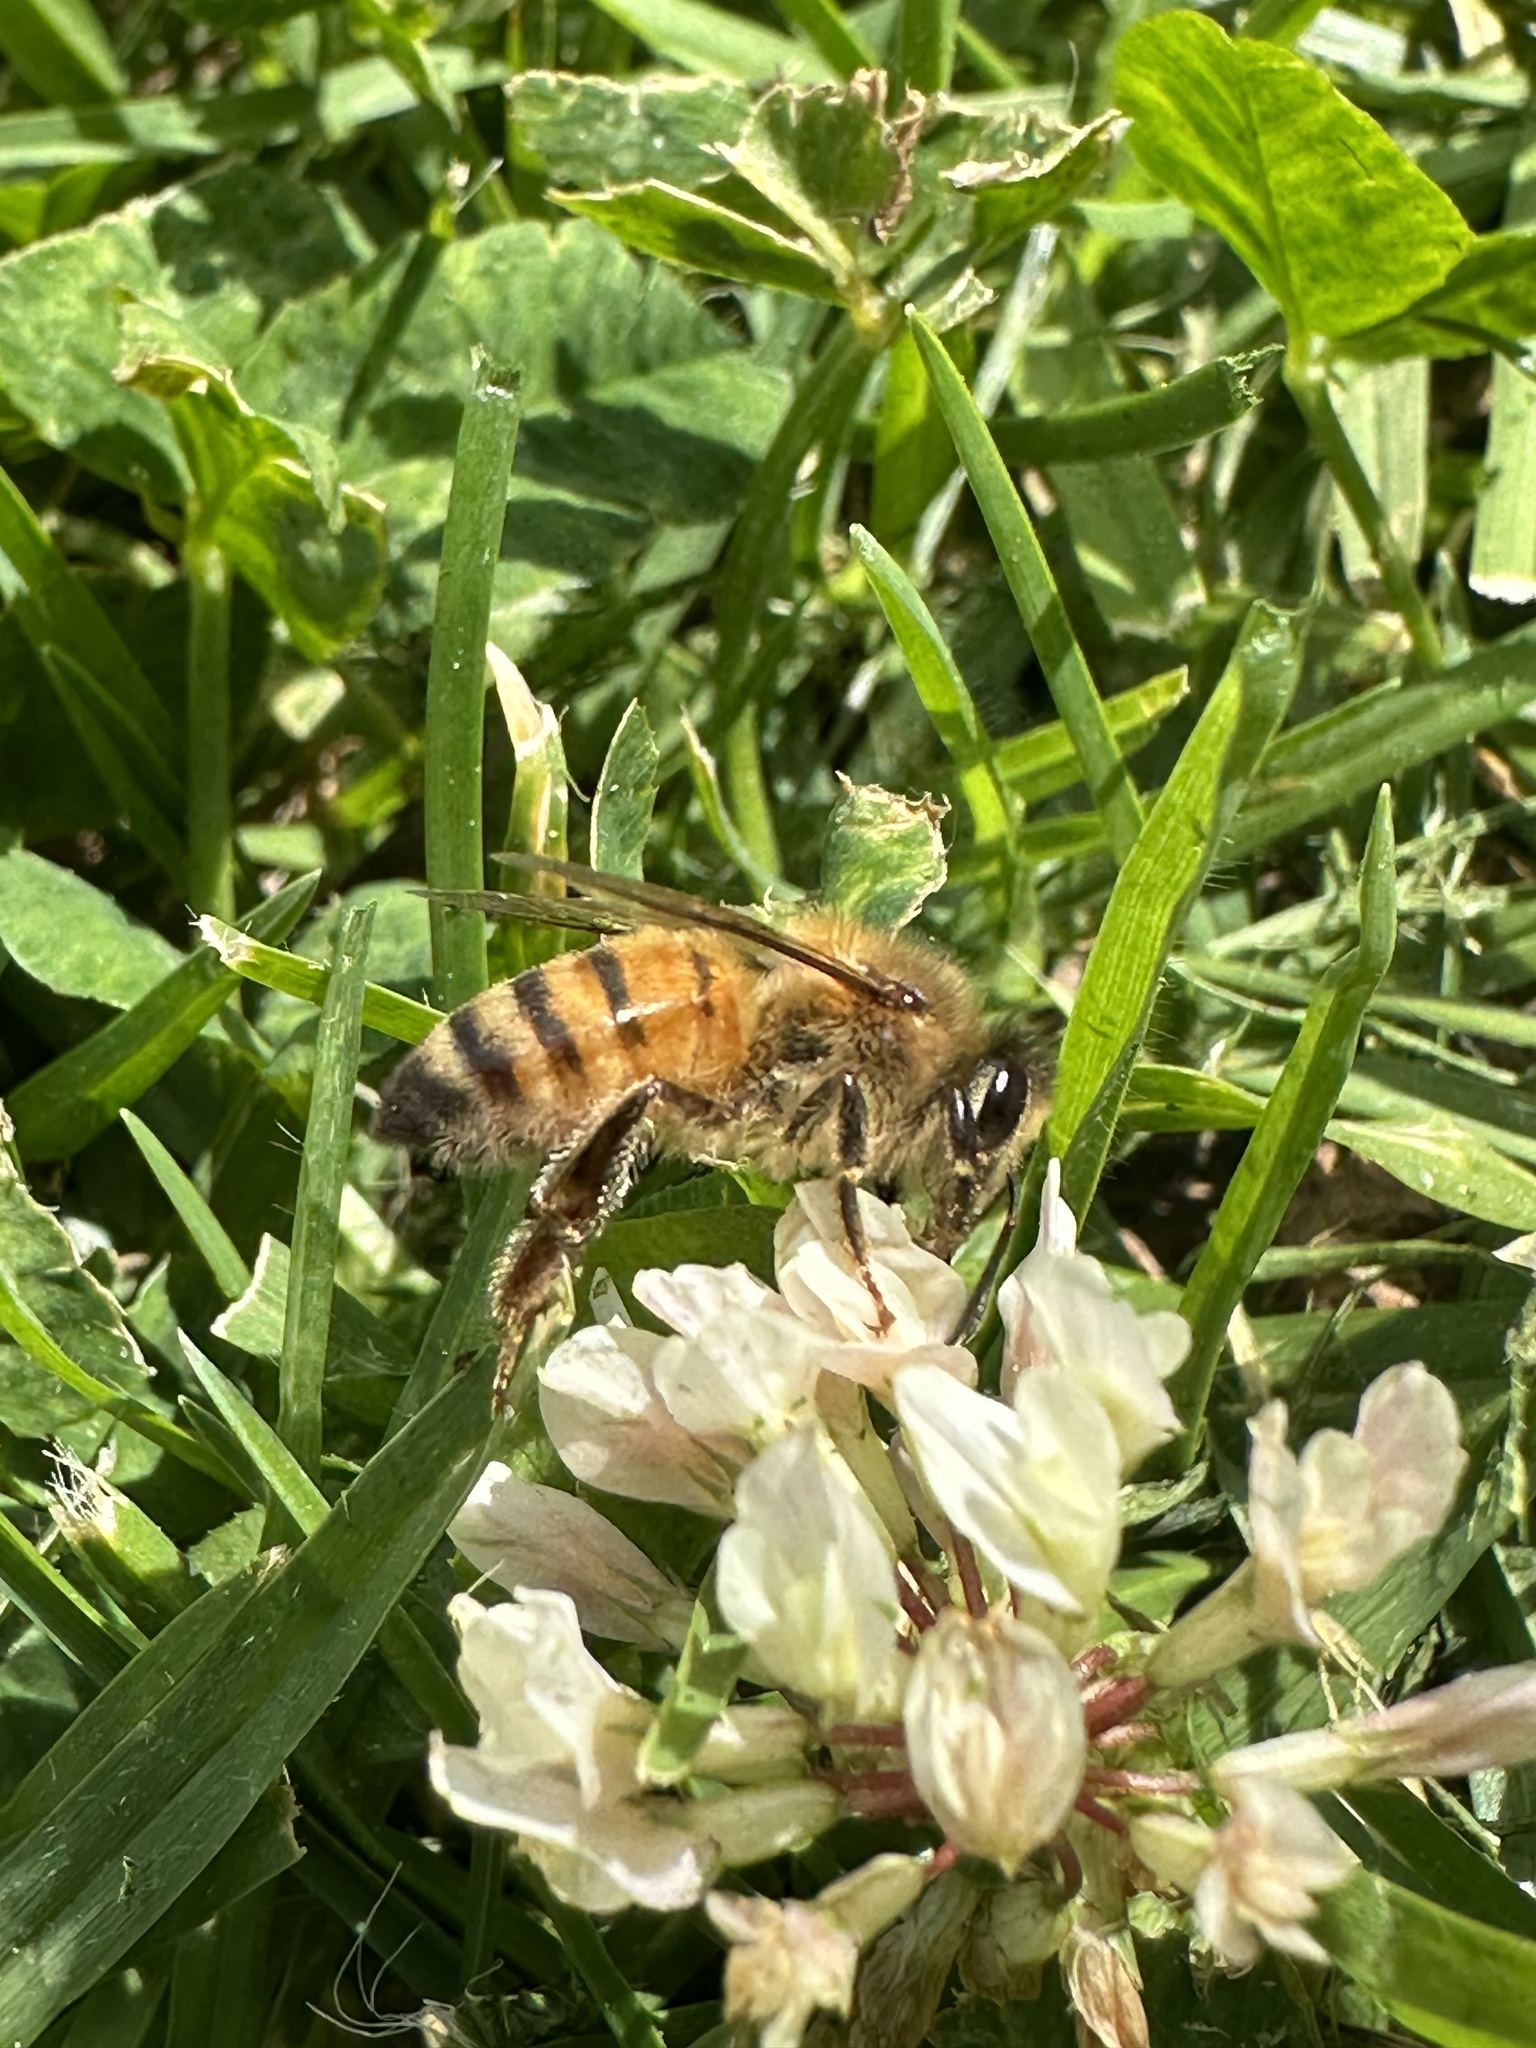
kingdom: Animalia
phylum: Arthropoda
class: Insecta
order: Hymenoptera
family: Apidae
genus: Apis
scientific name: Apis mellifera
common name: Honey bee
